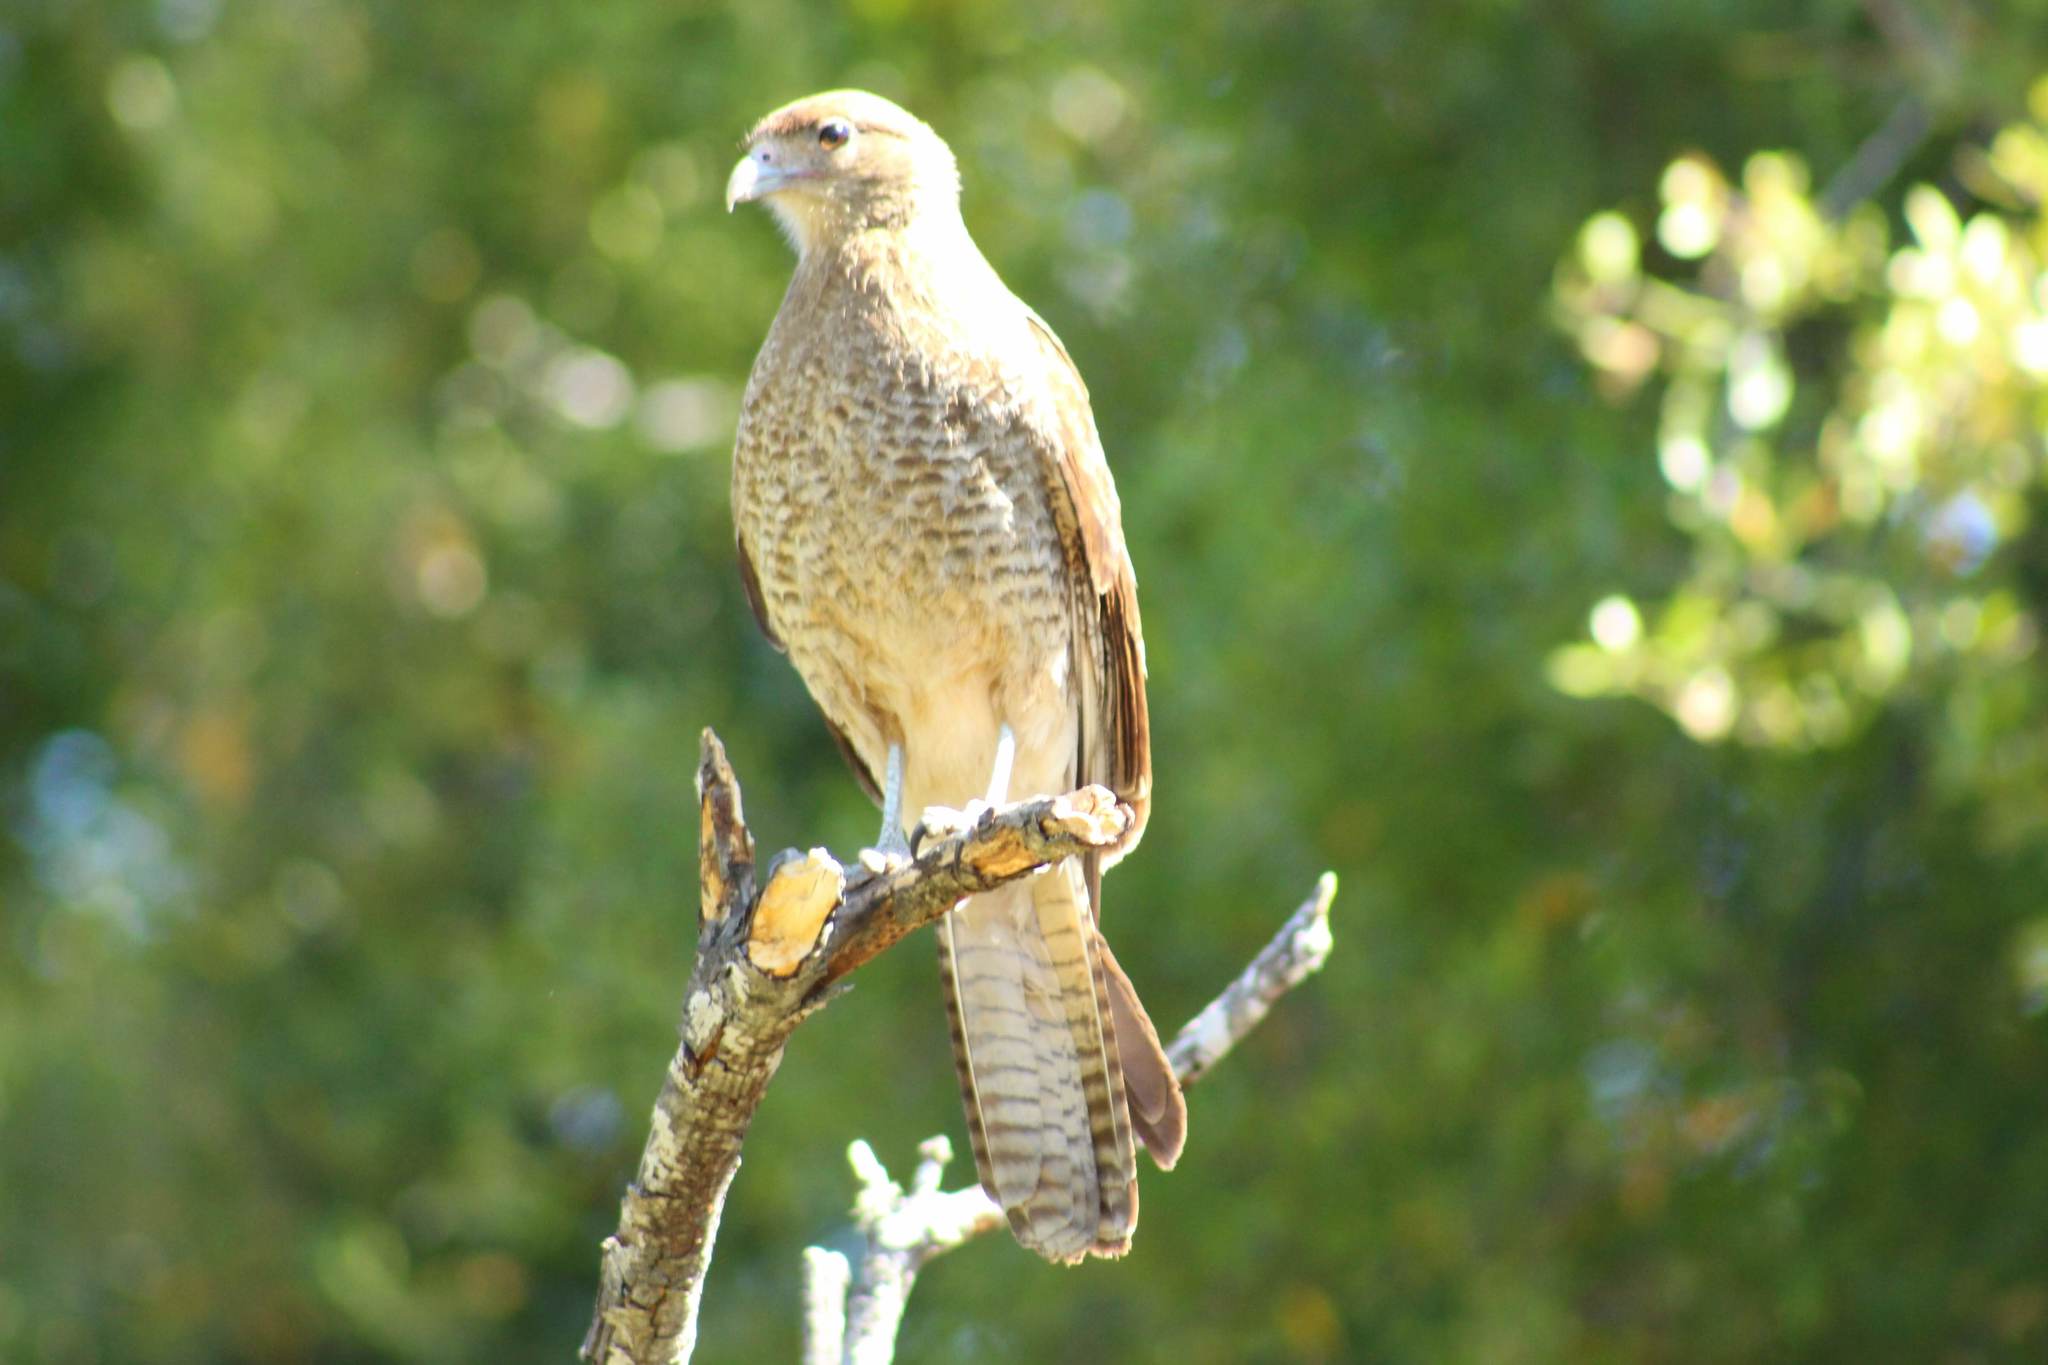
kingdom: Animalia
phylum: Chordata
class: Aves
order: Falconiformes
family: Falconidae
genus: Daptrius
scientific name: Daptrius
